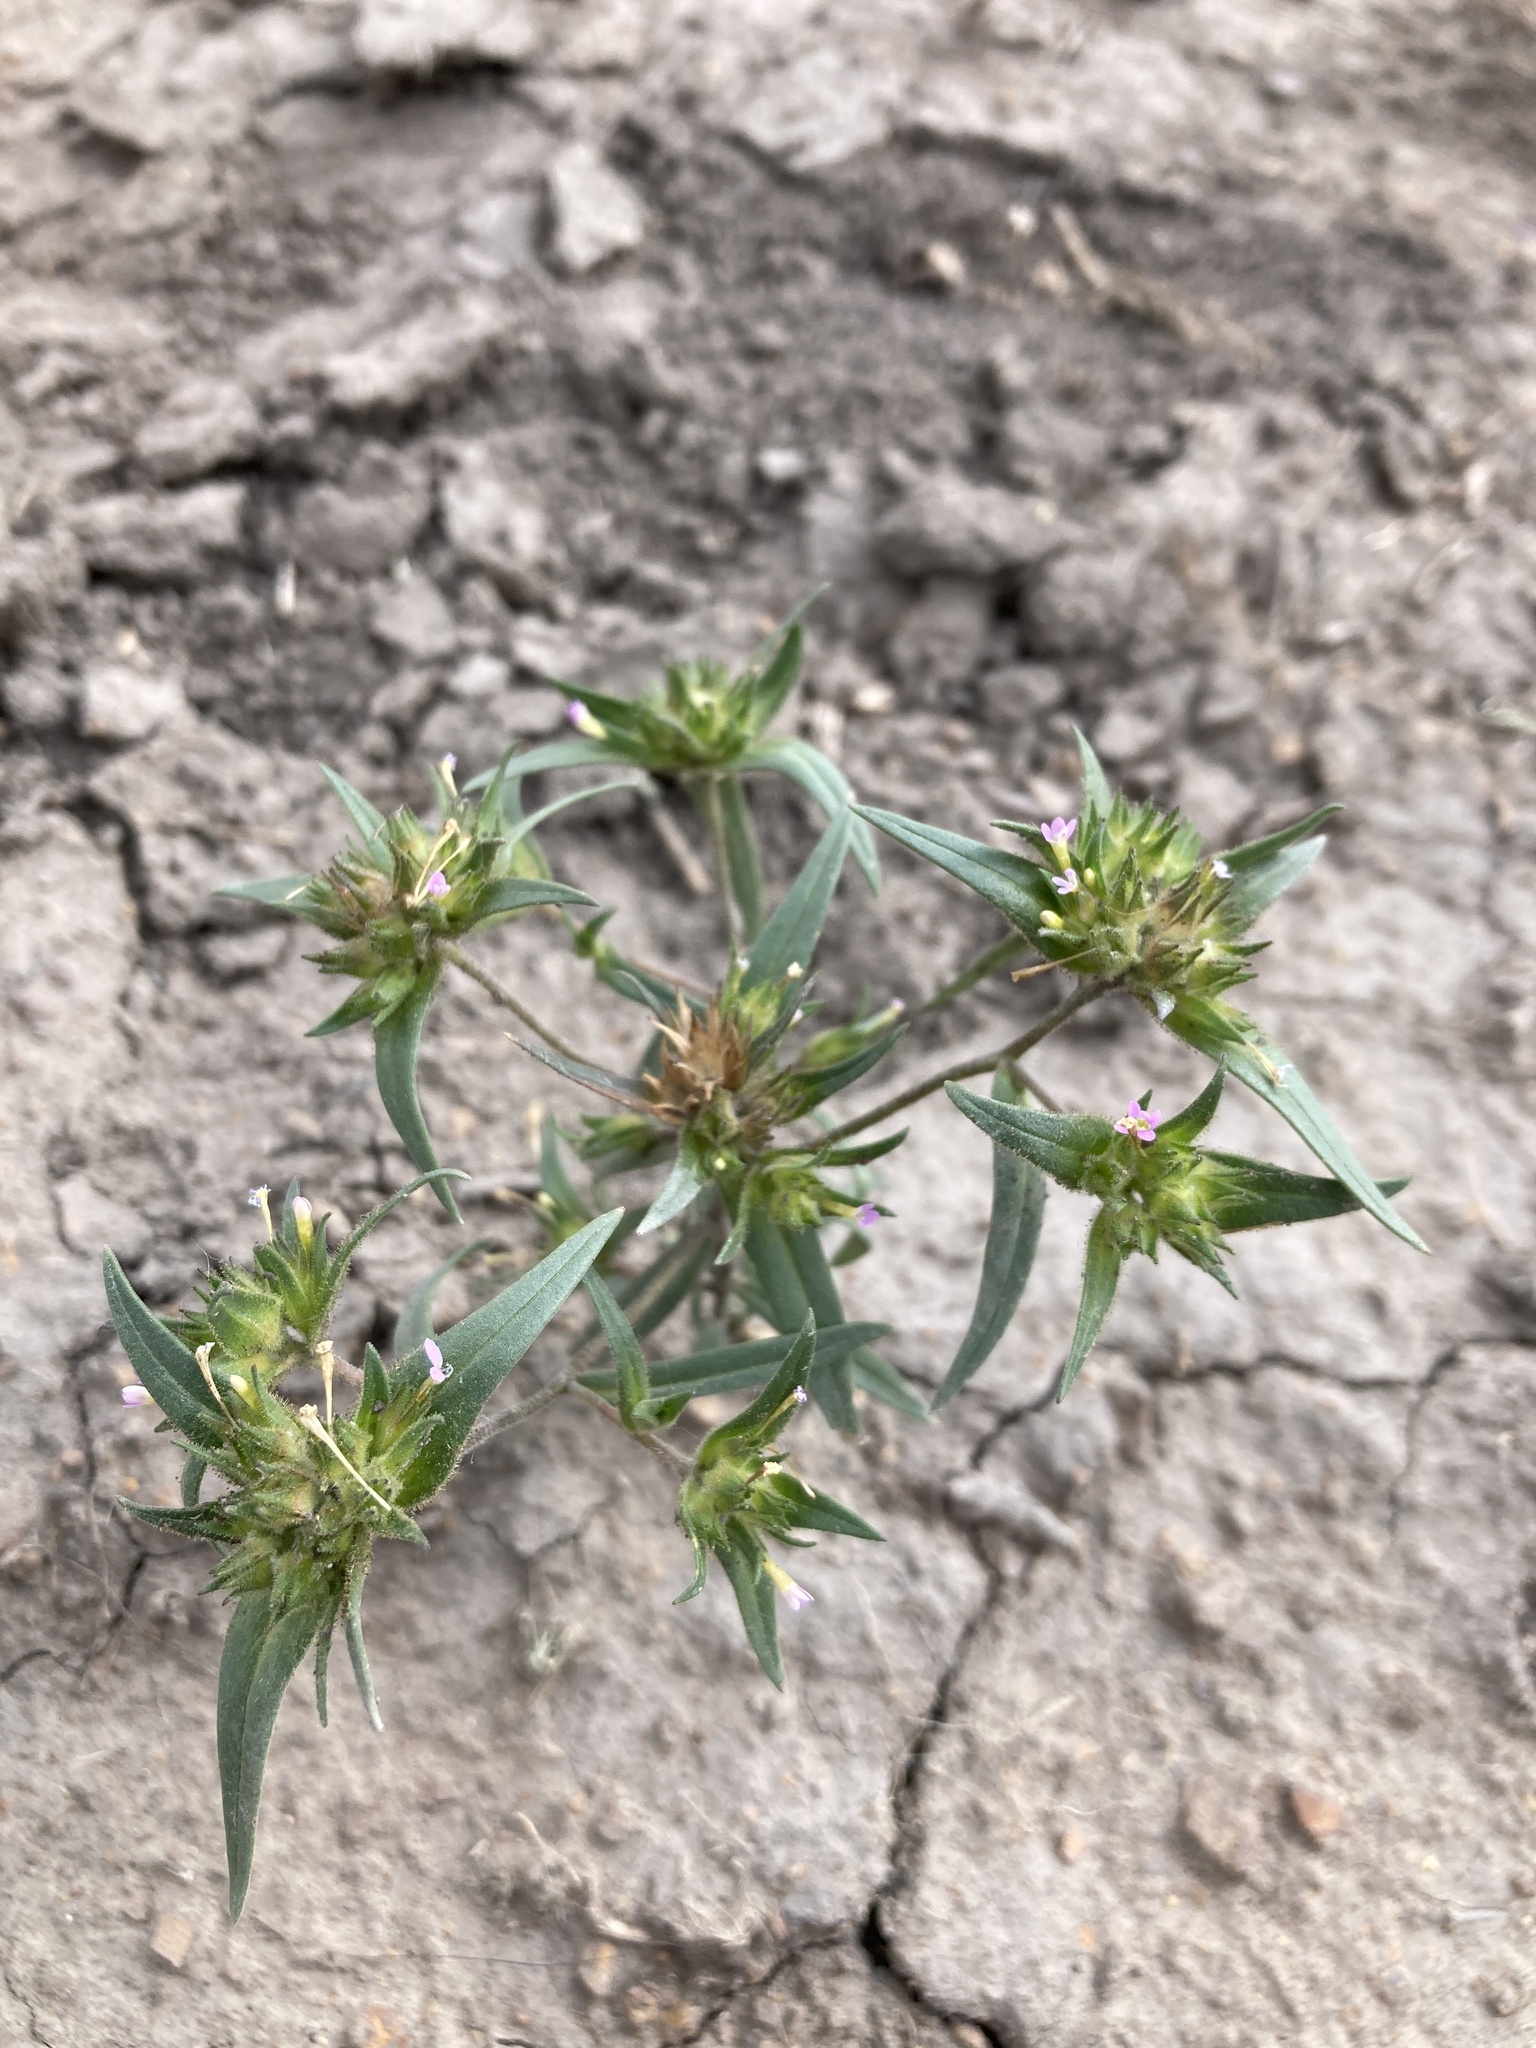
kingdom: Plantae
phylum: Tracheophyta
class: Magnoliopsida
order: Ericales
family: Polemoniaceae
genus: Collomia
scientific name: Collomia linearis
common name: Tiny trumpet
